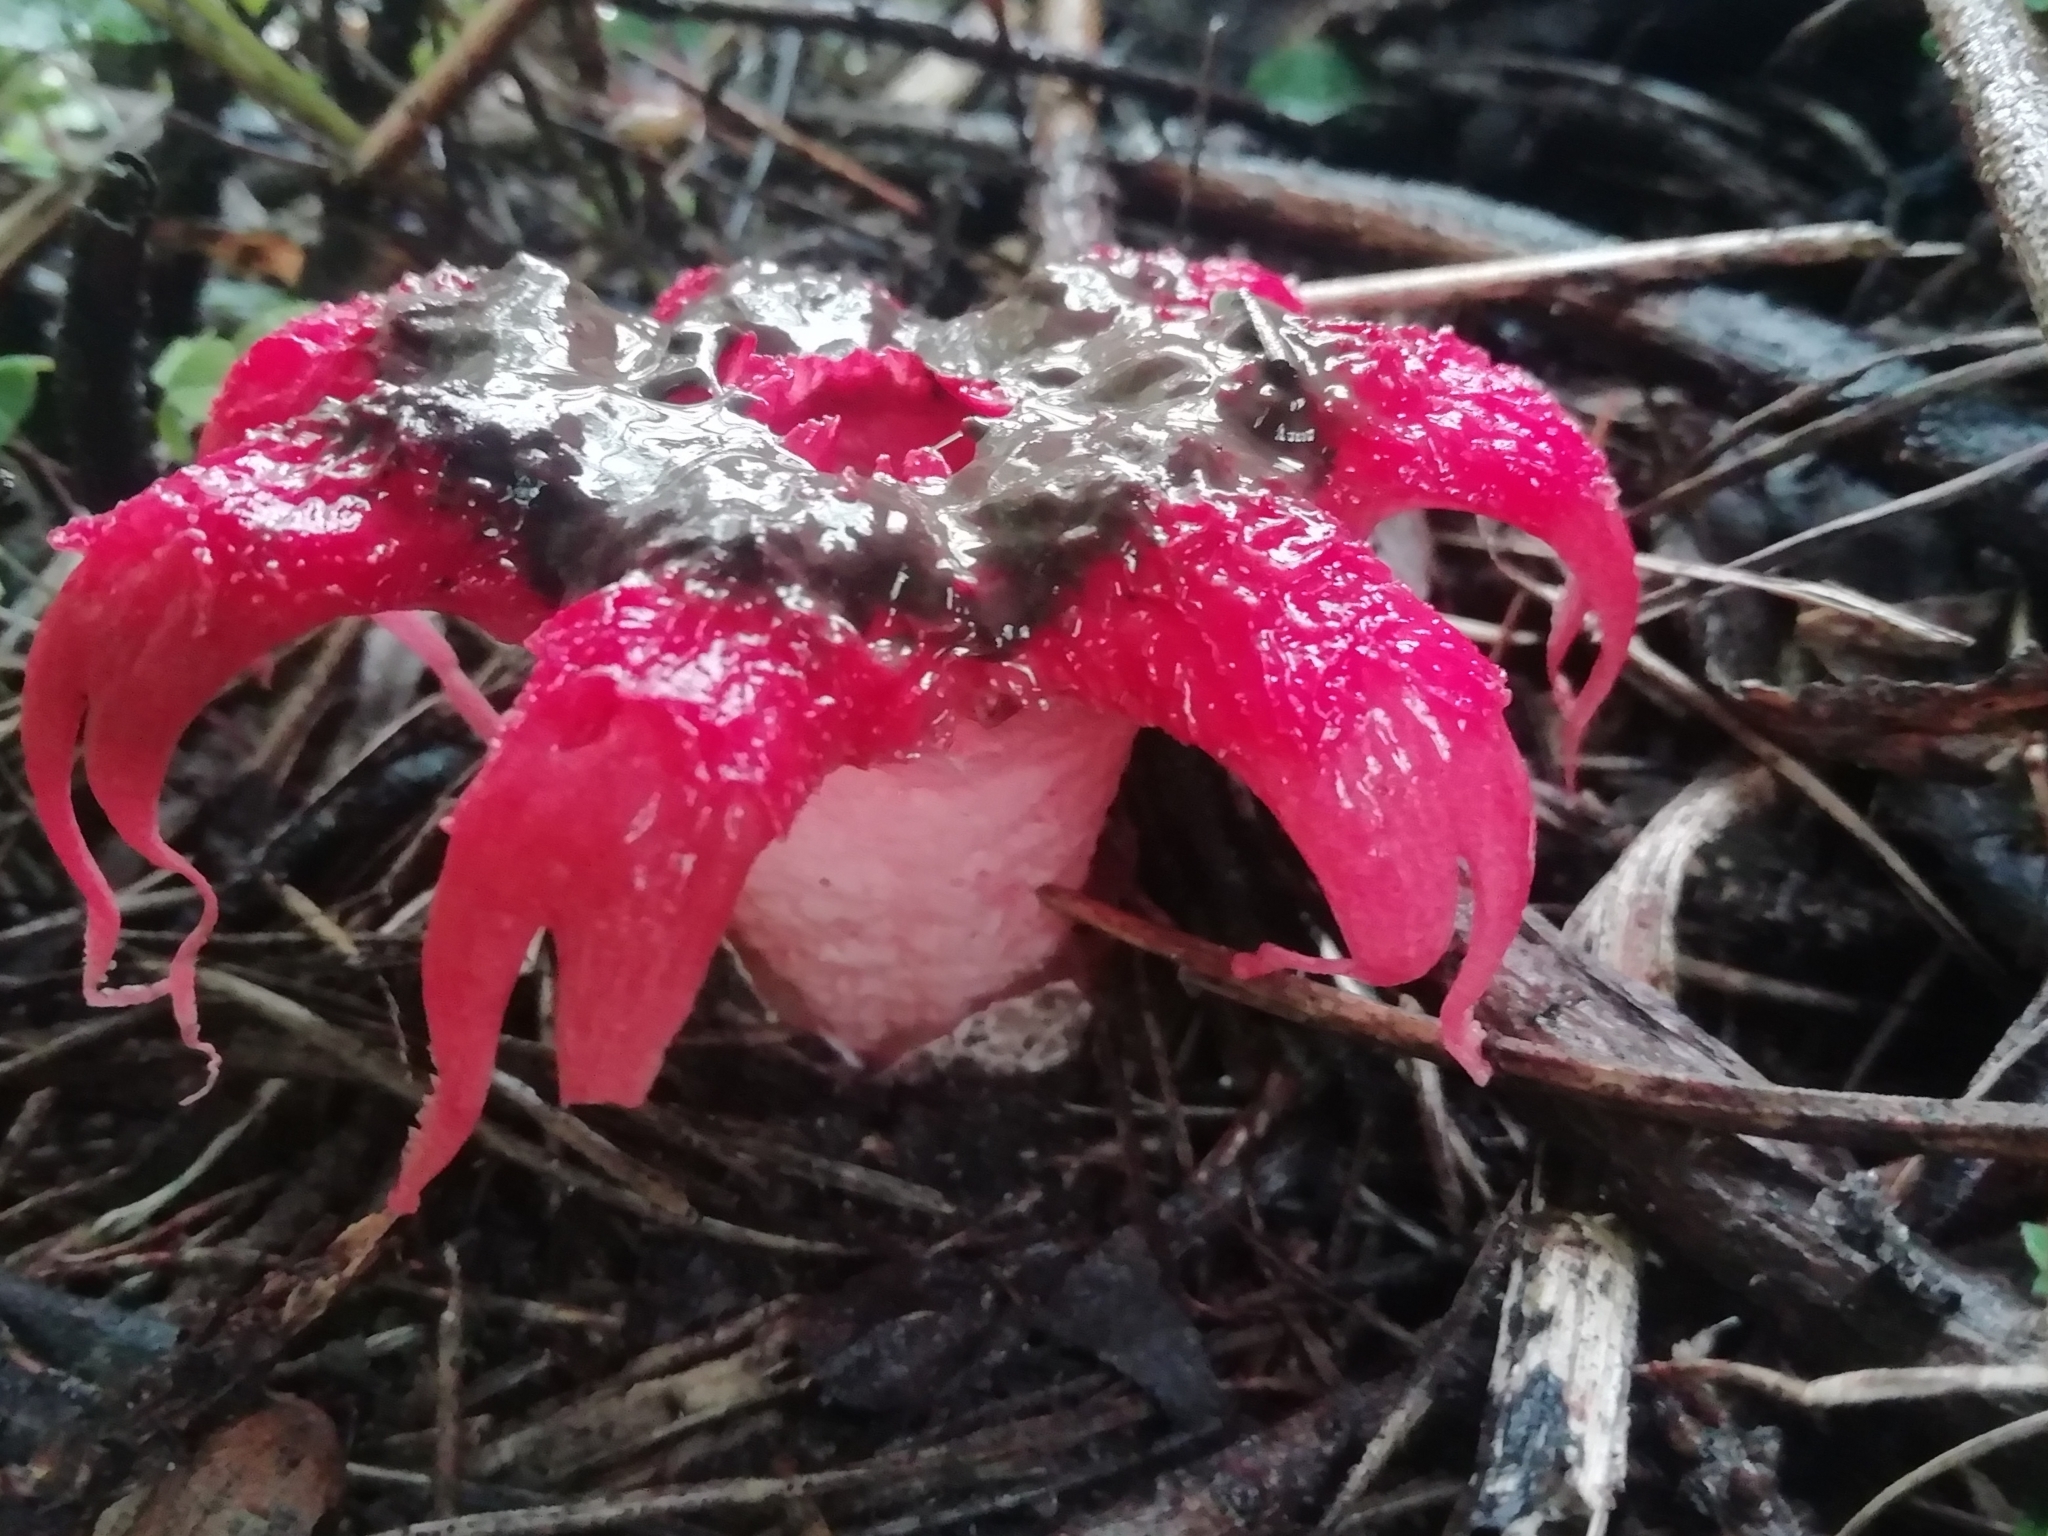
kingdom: Fungi
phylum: Basidiomycota
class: Agaricomycetes
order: Phallales
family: Phallaceae
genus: Aseroe
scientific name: Aseroe rubra
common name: Starfish fungus
